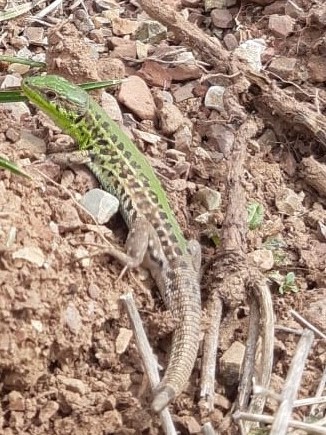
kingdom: Animalia
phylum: Chordata
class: Squamata
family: Lacertidae
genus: Podarcis
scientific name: Podarcis ionicus
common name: Ionian wall lizard
